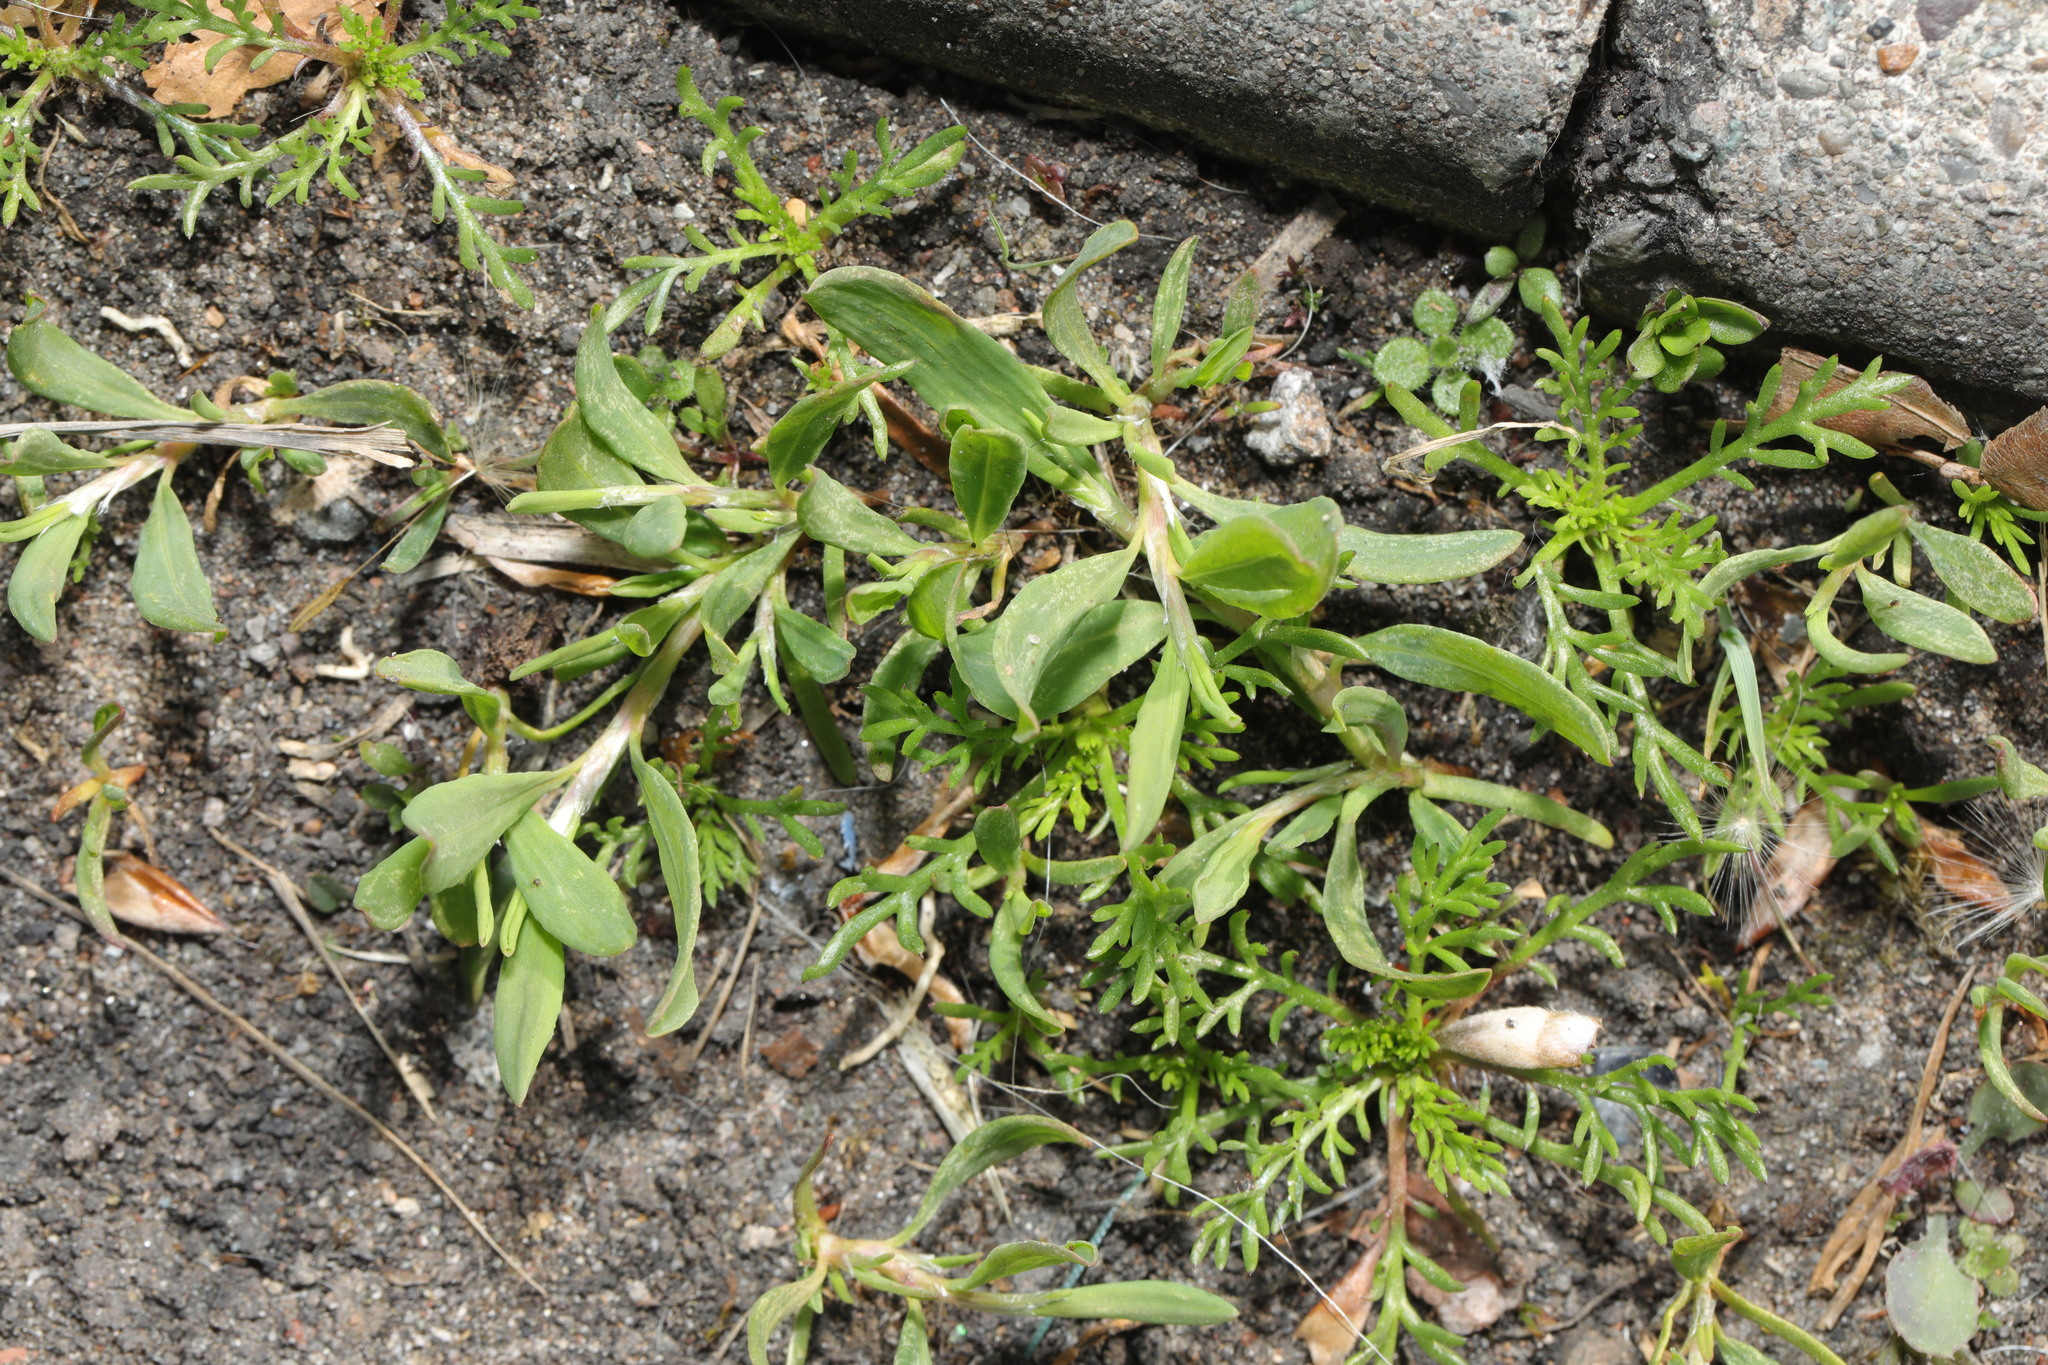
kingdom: Plantae
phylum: Tracheophyta
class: Magnoliopsida
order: Caryophyllales
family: Polygonaceae
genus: Polygonum
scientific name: Polygonum aviculare
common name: Prostrate knotweed
